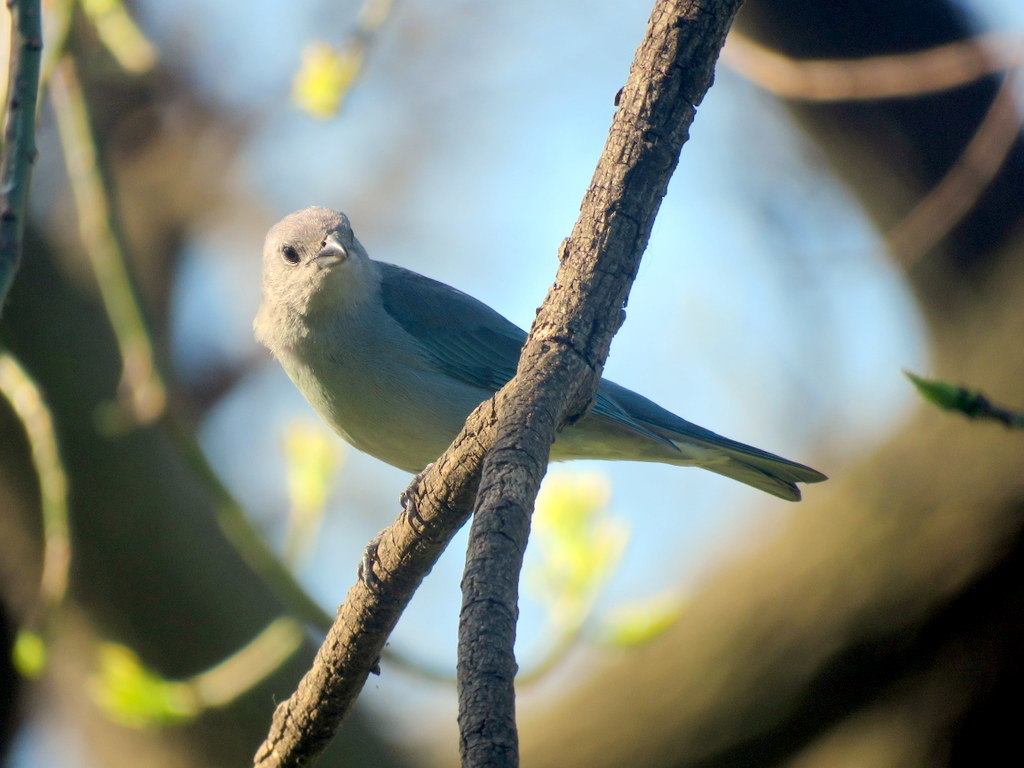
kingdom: Animalia
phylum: Chordata
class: Aves
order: Passeriformes
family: Thraupidae
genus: Thraupis
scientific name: Thraupis sayaca
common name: Sayaca tanager
